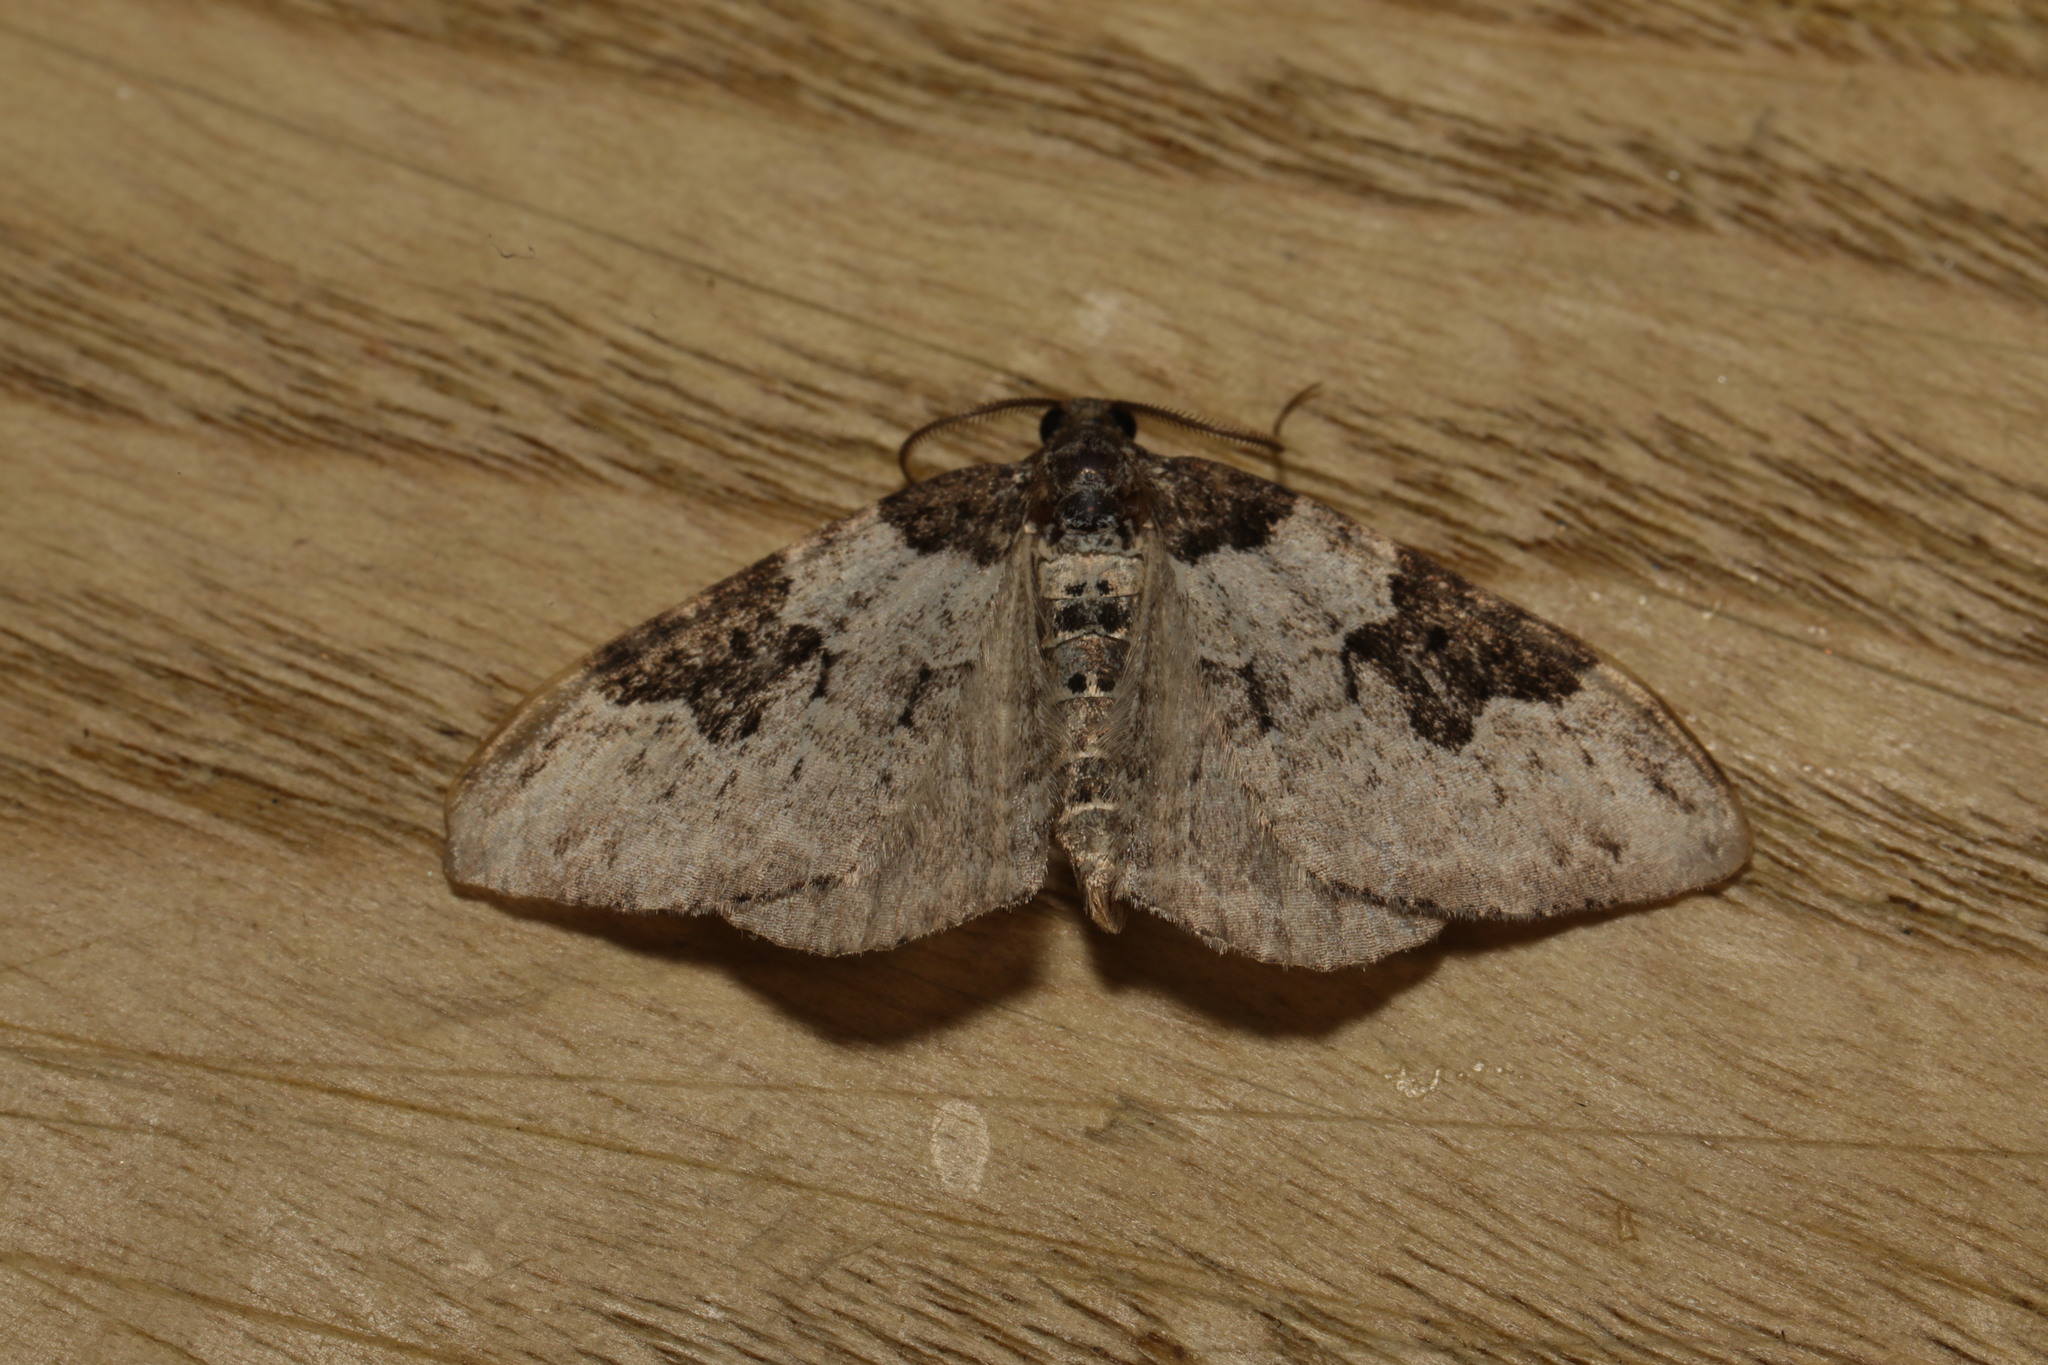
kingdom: Animalia
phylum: Arthropoda
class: Insecta
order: Lepidoptera
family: Geometridae
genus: Xanthorhoe
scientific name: Xanthorhoe fluctuata
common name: Garden carpet
